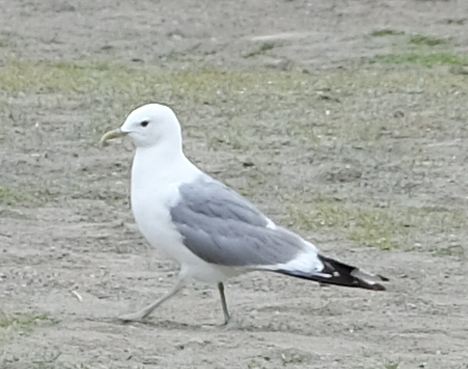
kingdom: Animalia
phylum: Chordata
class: Aves
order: Charadriiformes
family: Laridae
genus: Larus
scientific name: Larus brachyrhynchus
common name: Short-billed gull
